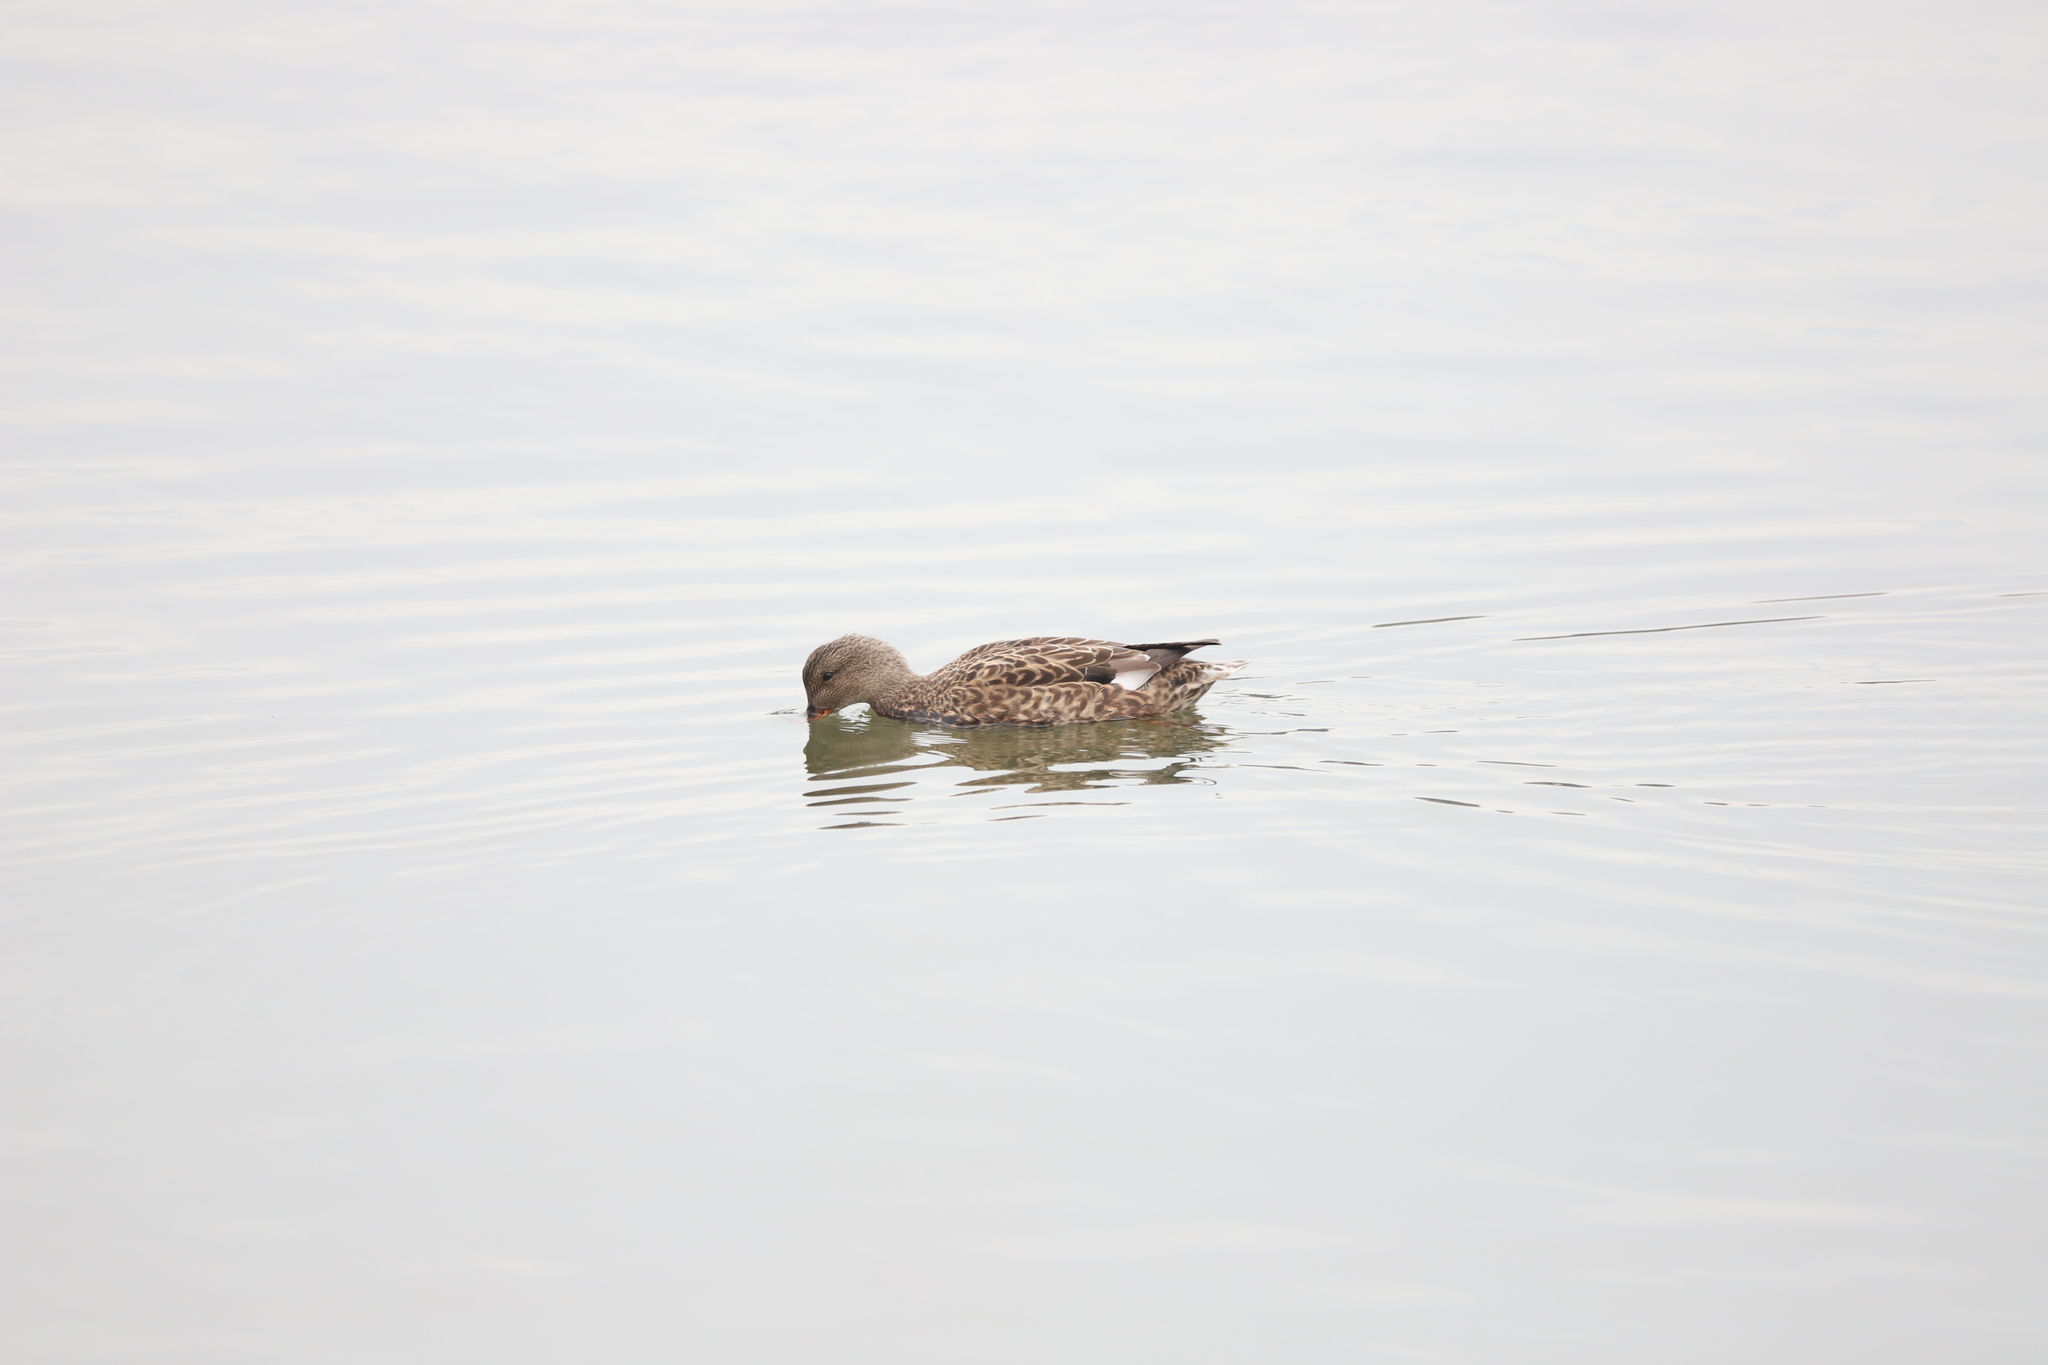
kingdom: Animalia
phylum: Chordata
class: Aves
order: Anseriformes
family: Anatidae
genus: Mareca
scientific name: Mareca strepera
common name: Gadwall
